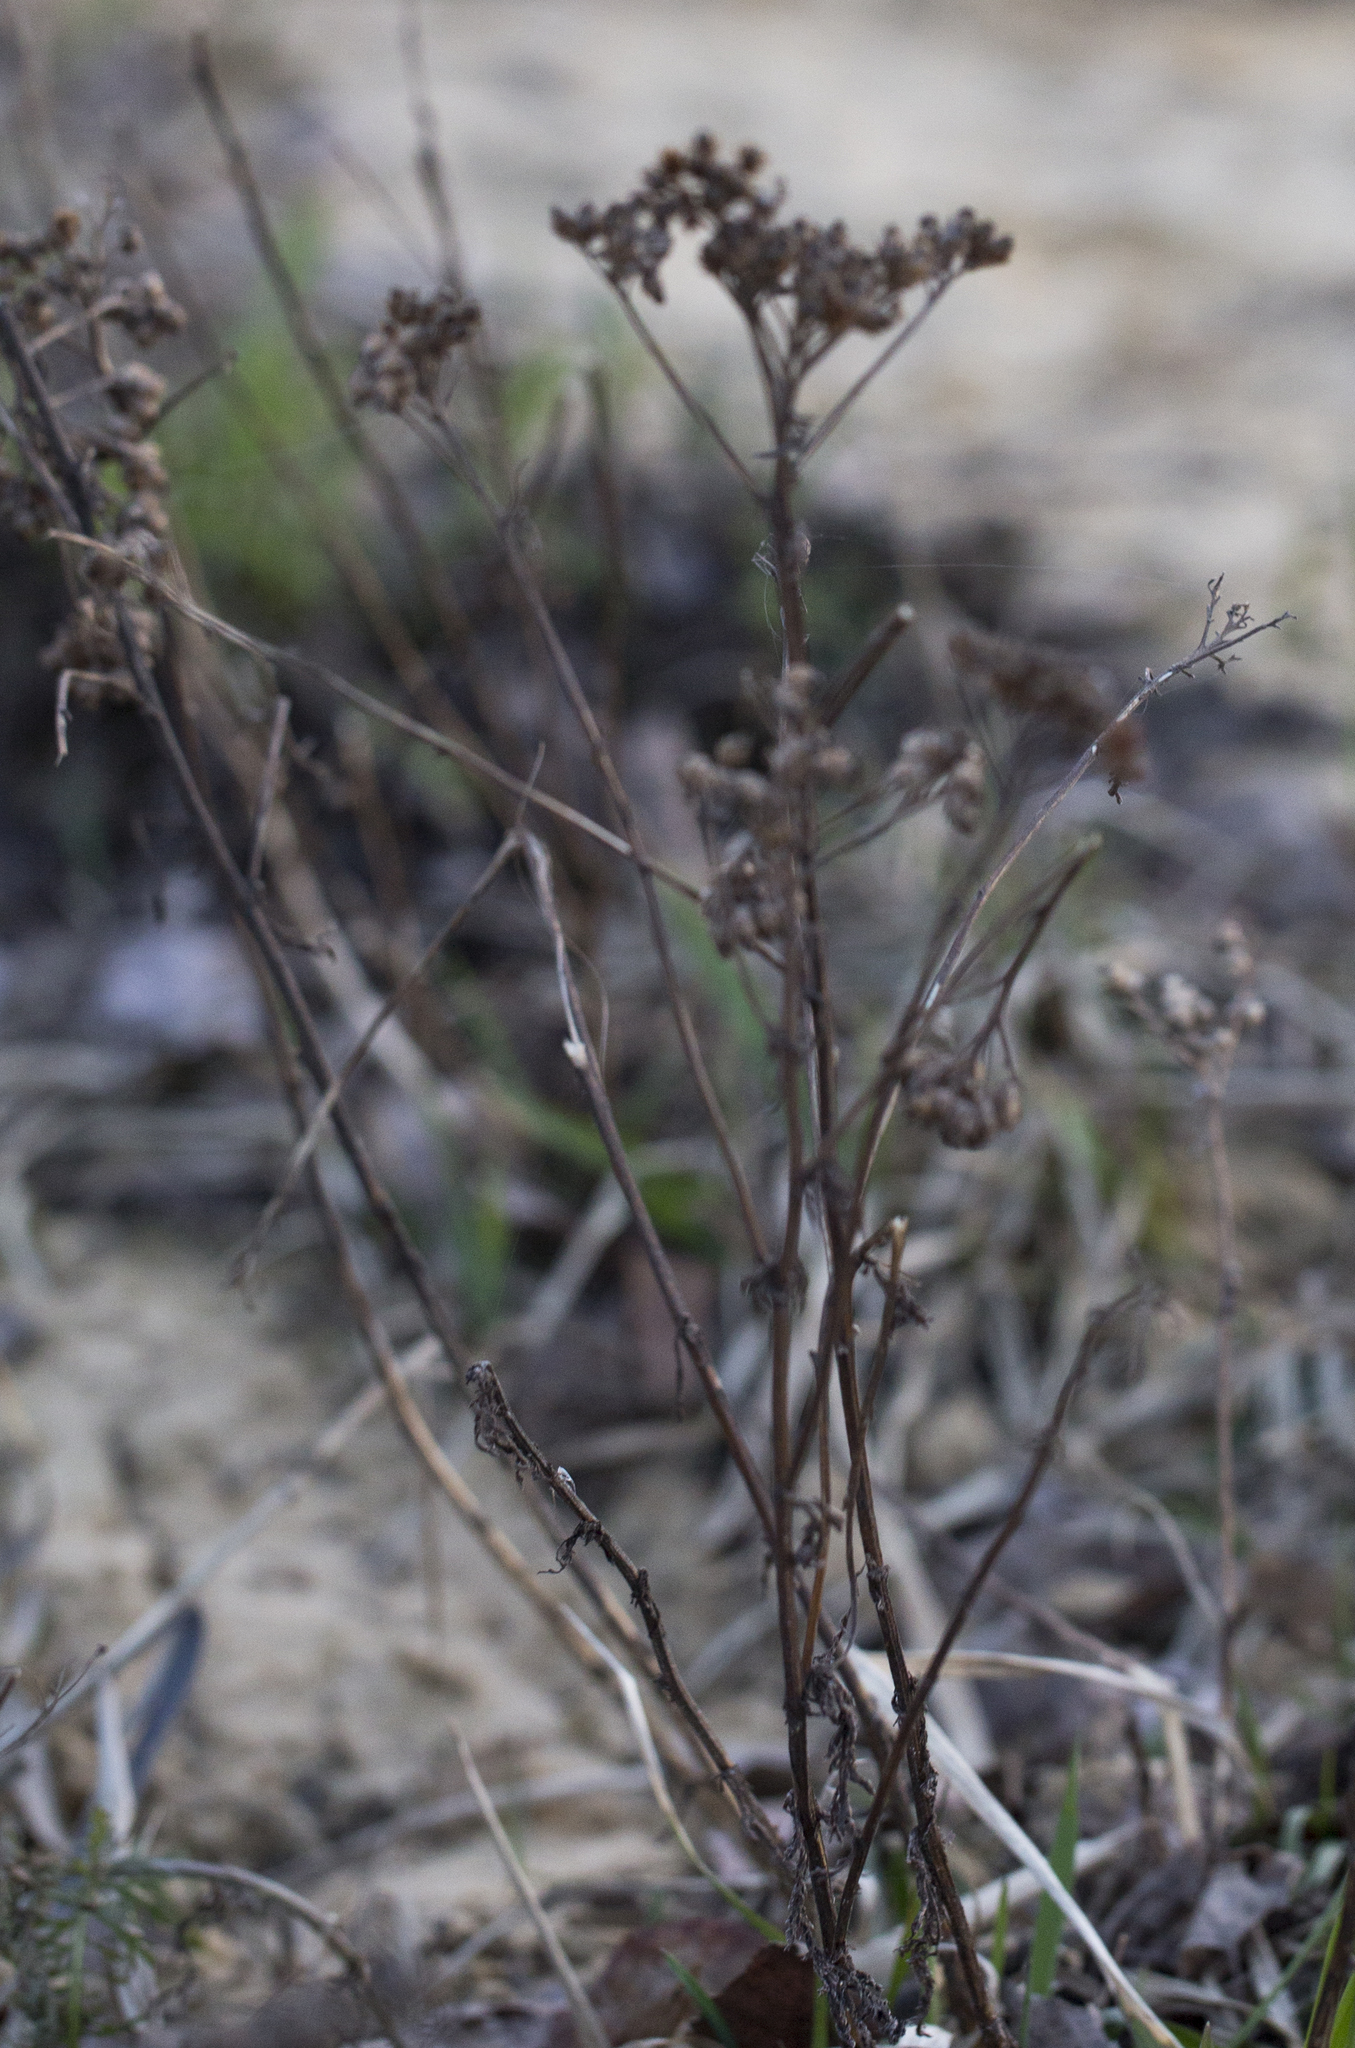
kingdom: Plantae
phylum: Tracheophyta
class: Magnoliopsida
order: Asterales
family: Asteraceae
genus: Achillea
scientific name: Achillea millefolium
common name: Yarrow
